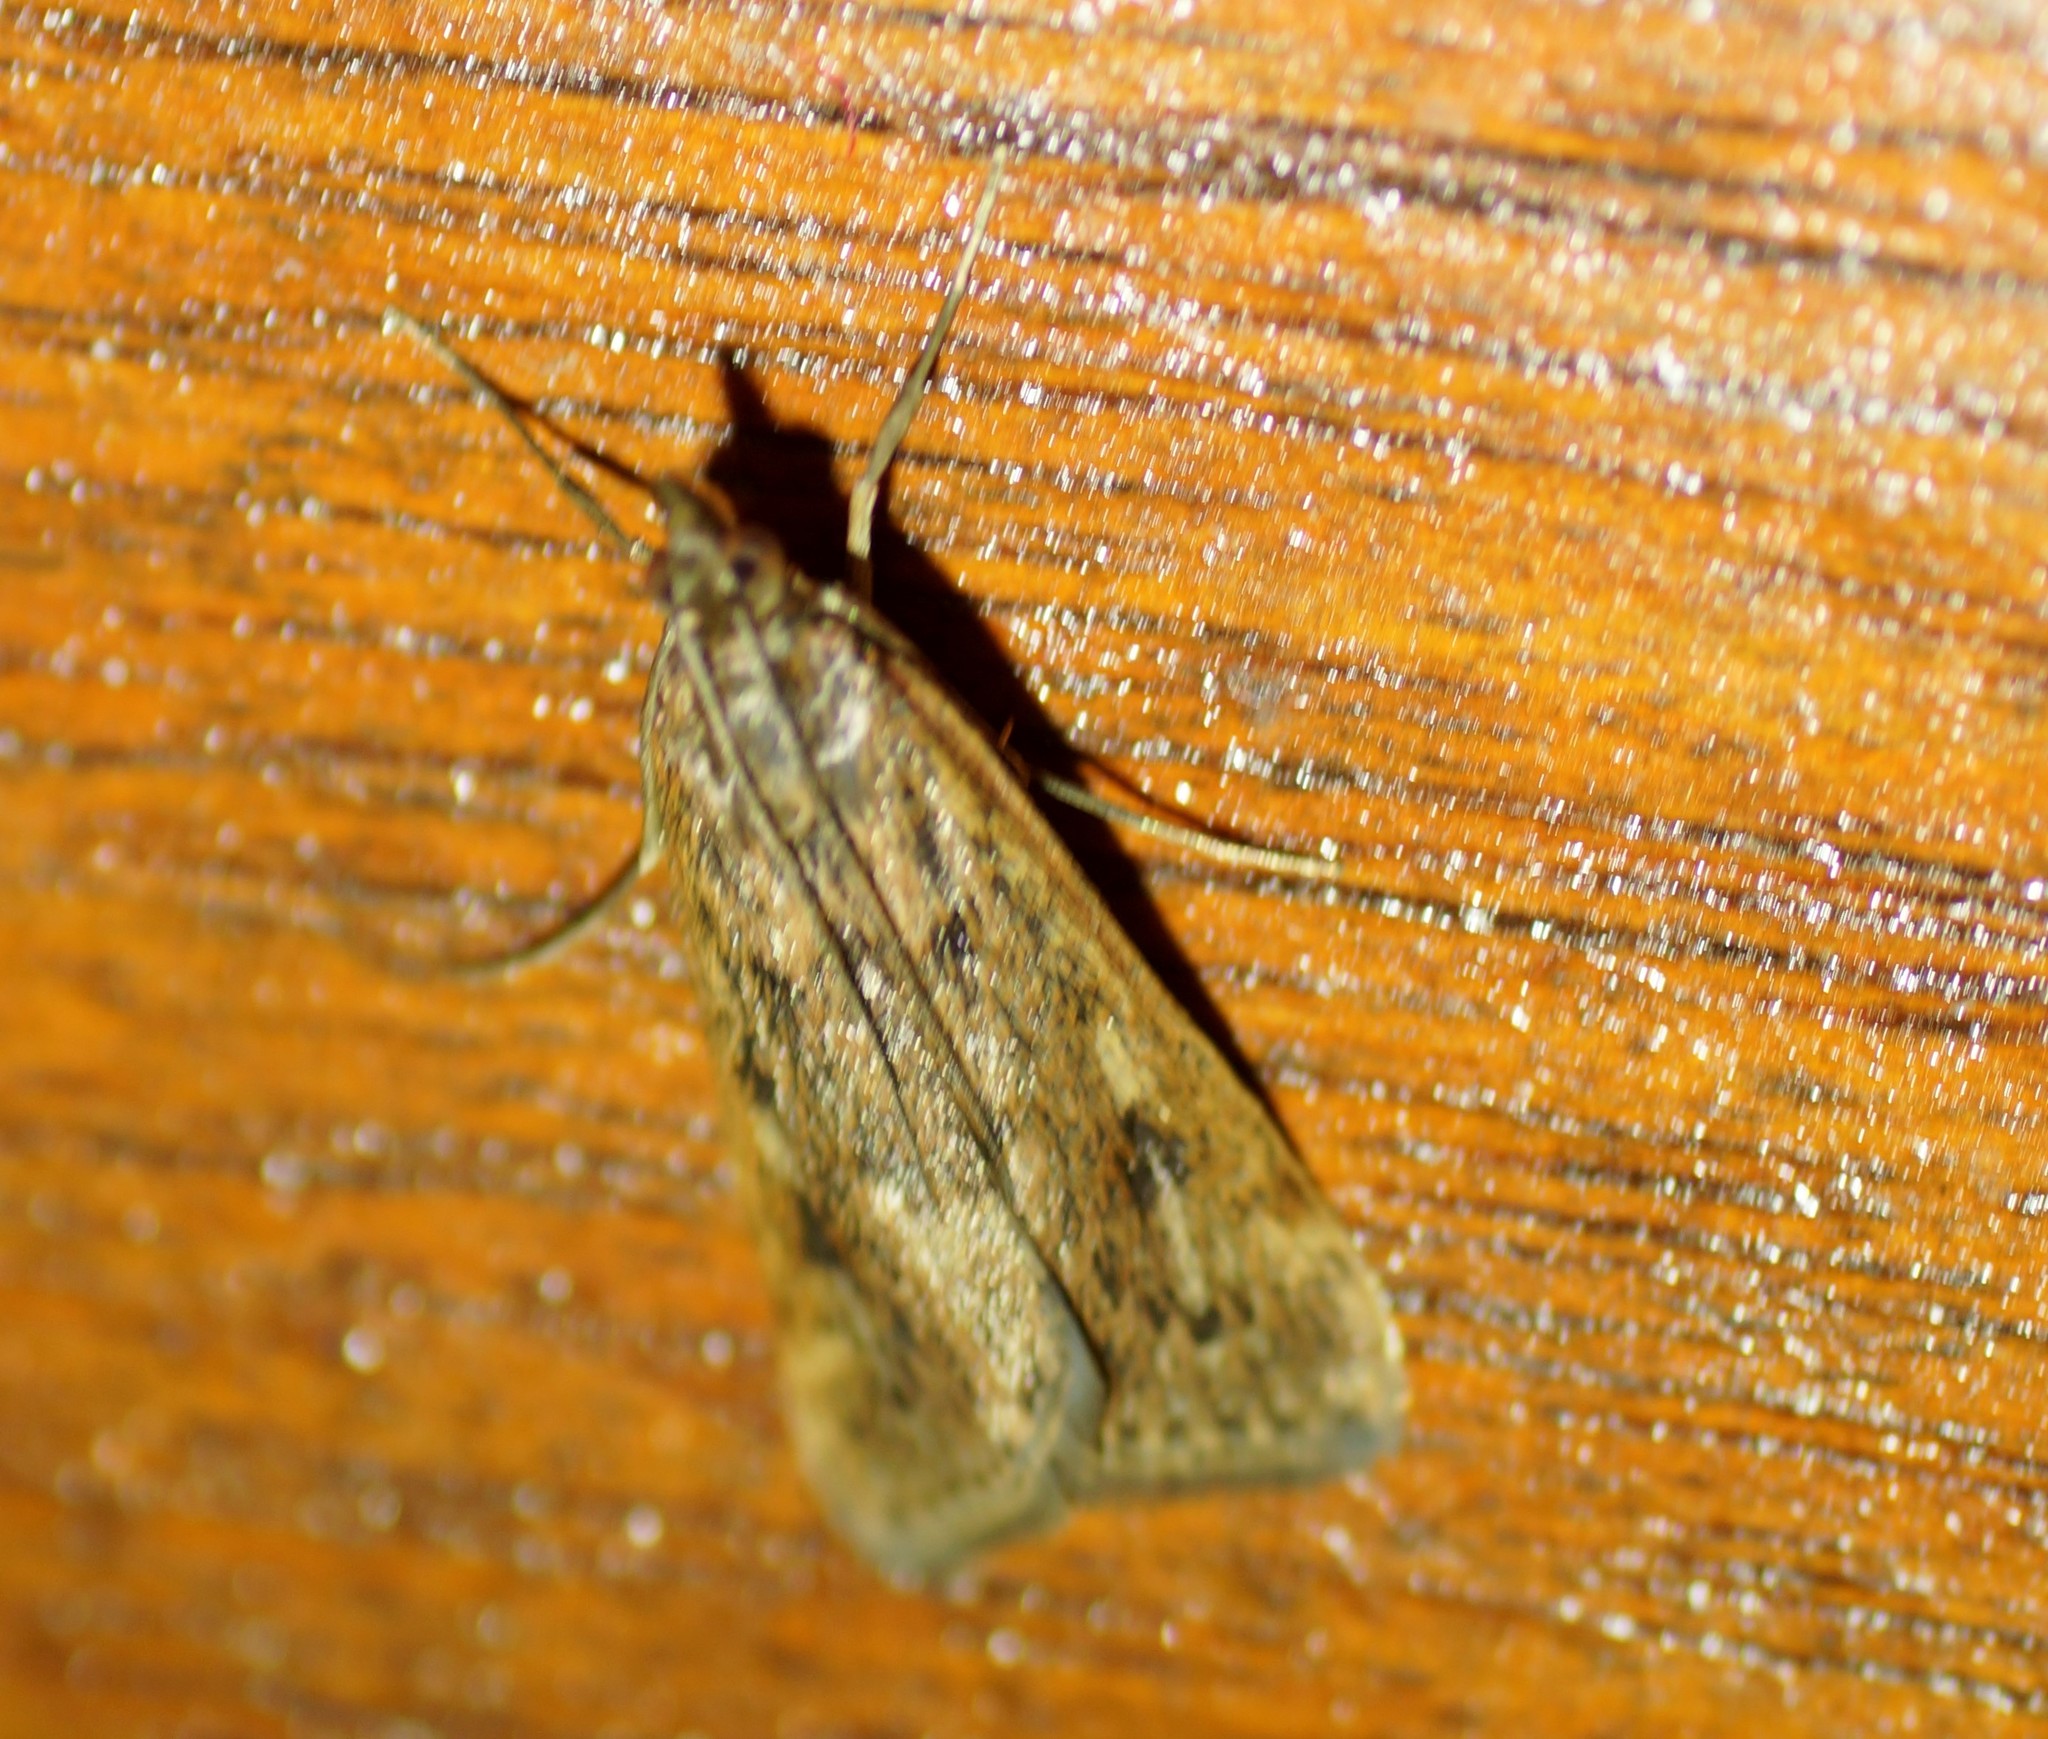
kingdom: Animalia
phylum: Arthropoda
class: Insecta
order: Lepidoptera
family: Crambidae
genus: Achyra
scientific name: Achyra affinitalis
